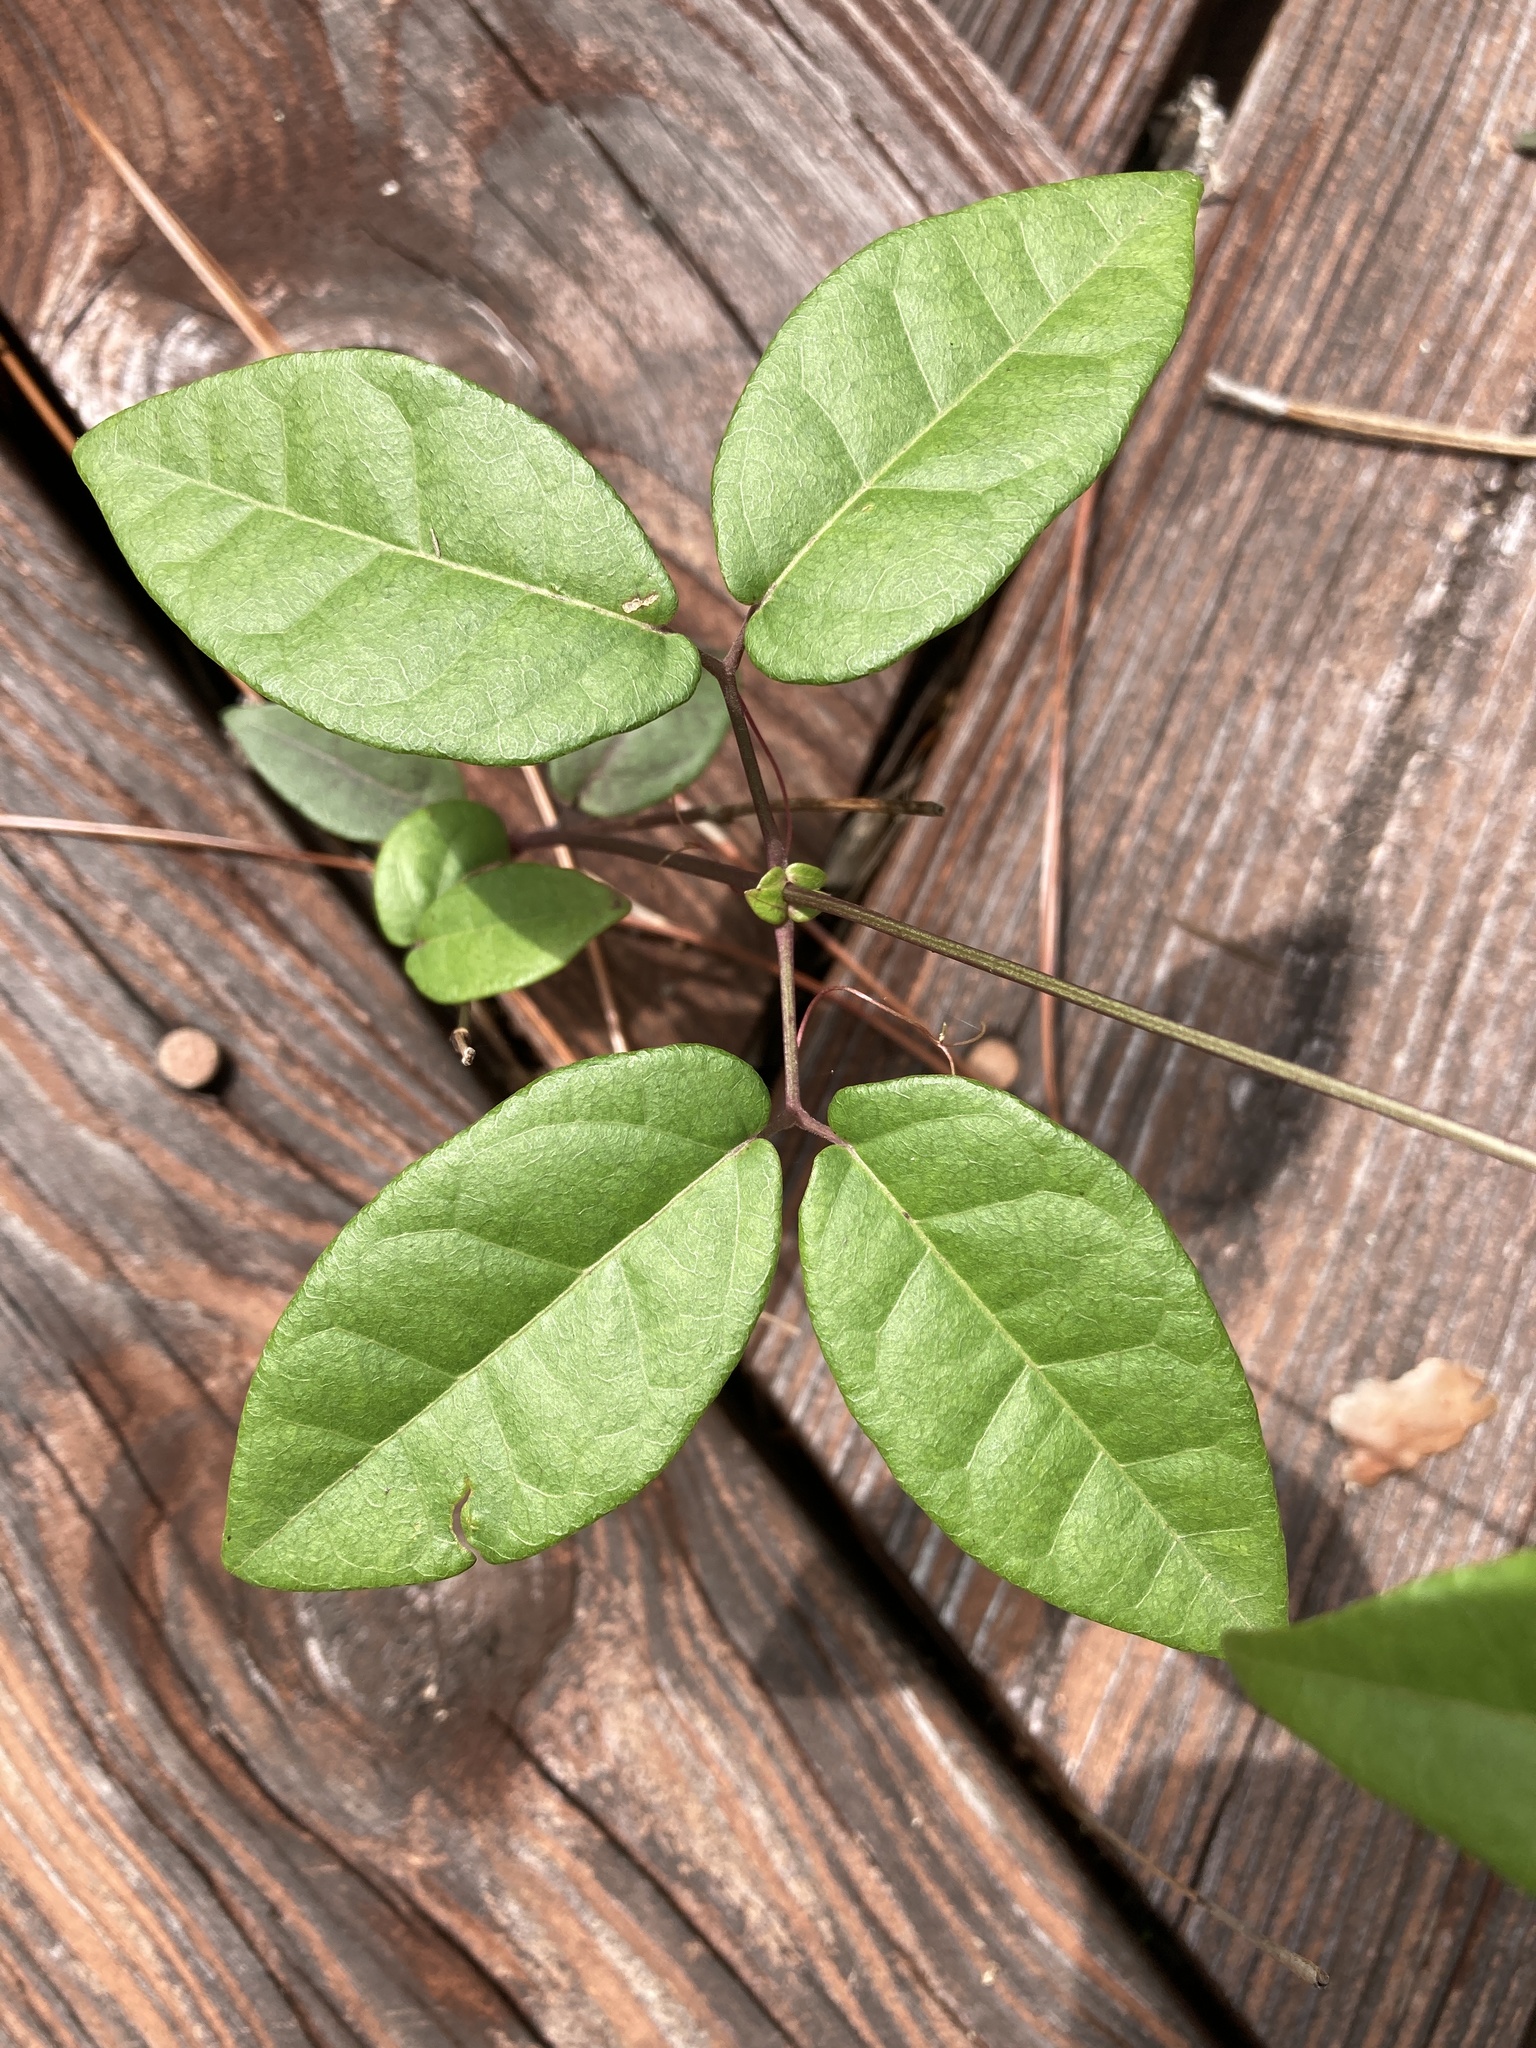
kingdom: Plantae
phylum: Tracheophyta
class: Magnoliopsida
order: Lamiales
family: Bignoniaceae
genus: Bignonia
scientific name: Bignonia capreolata
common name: Crossvine
